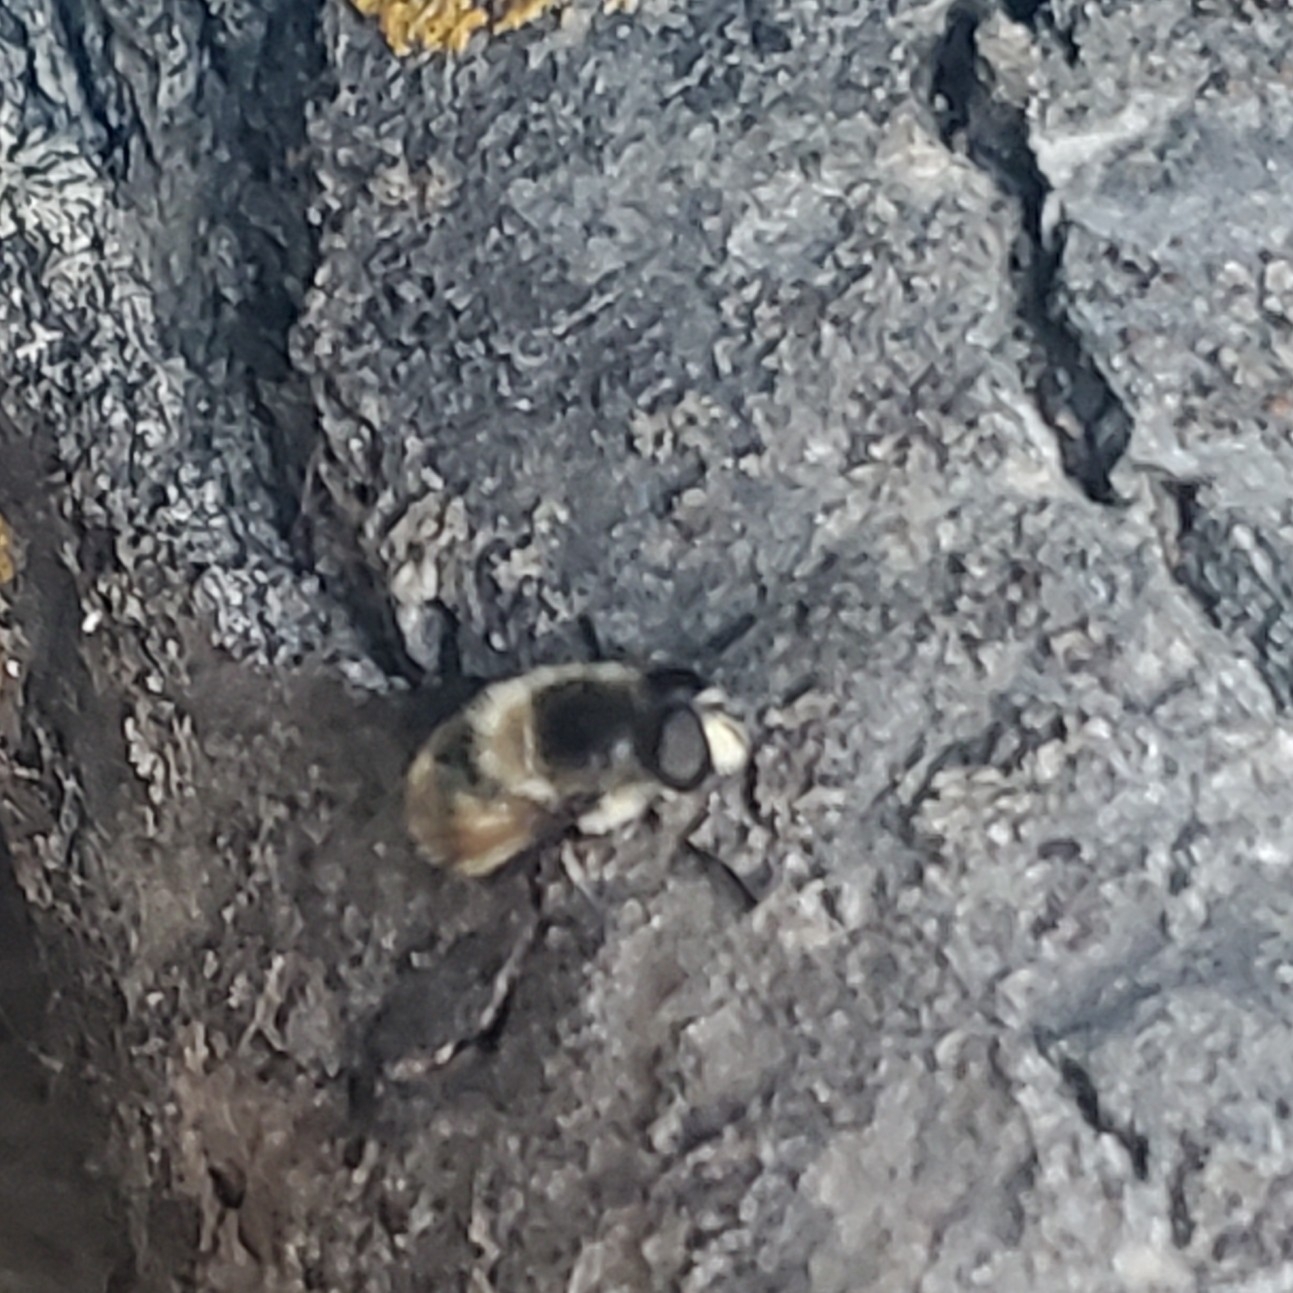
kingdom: Animalia
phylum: Arthropoda
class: Insecta
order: Diptera
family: Syrphidae
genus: Eristalis
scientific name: Eristalis anthophorina
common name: Orange-spotted drone fly
